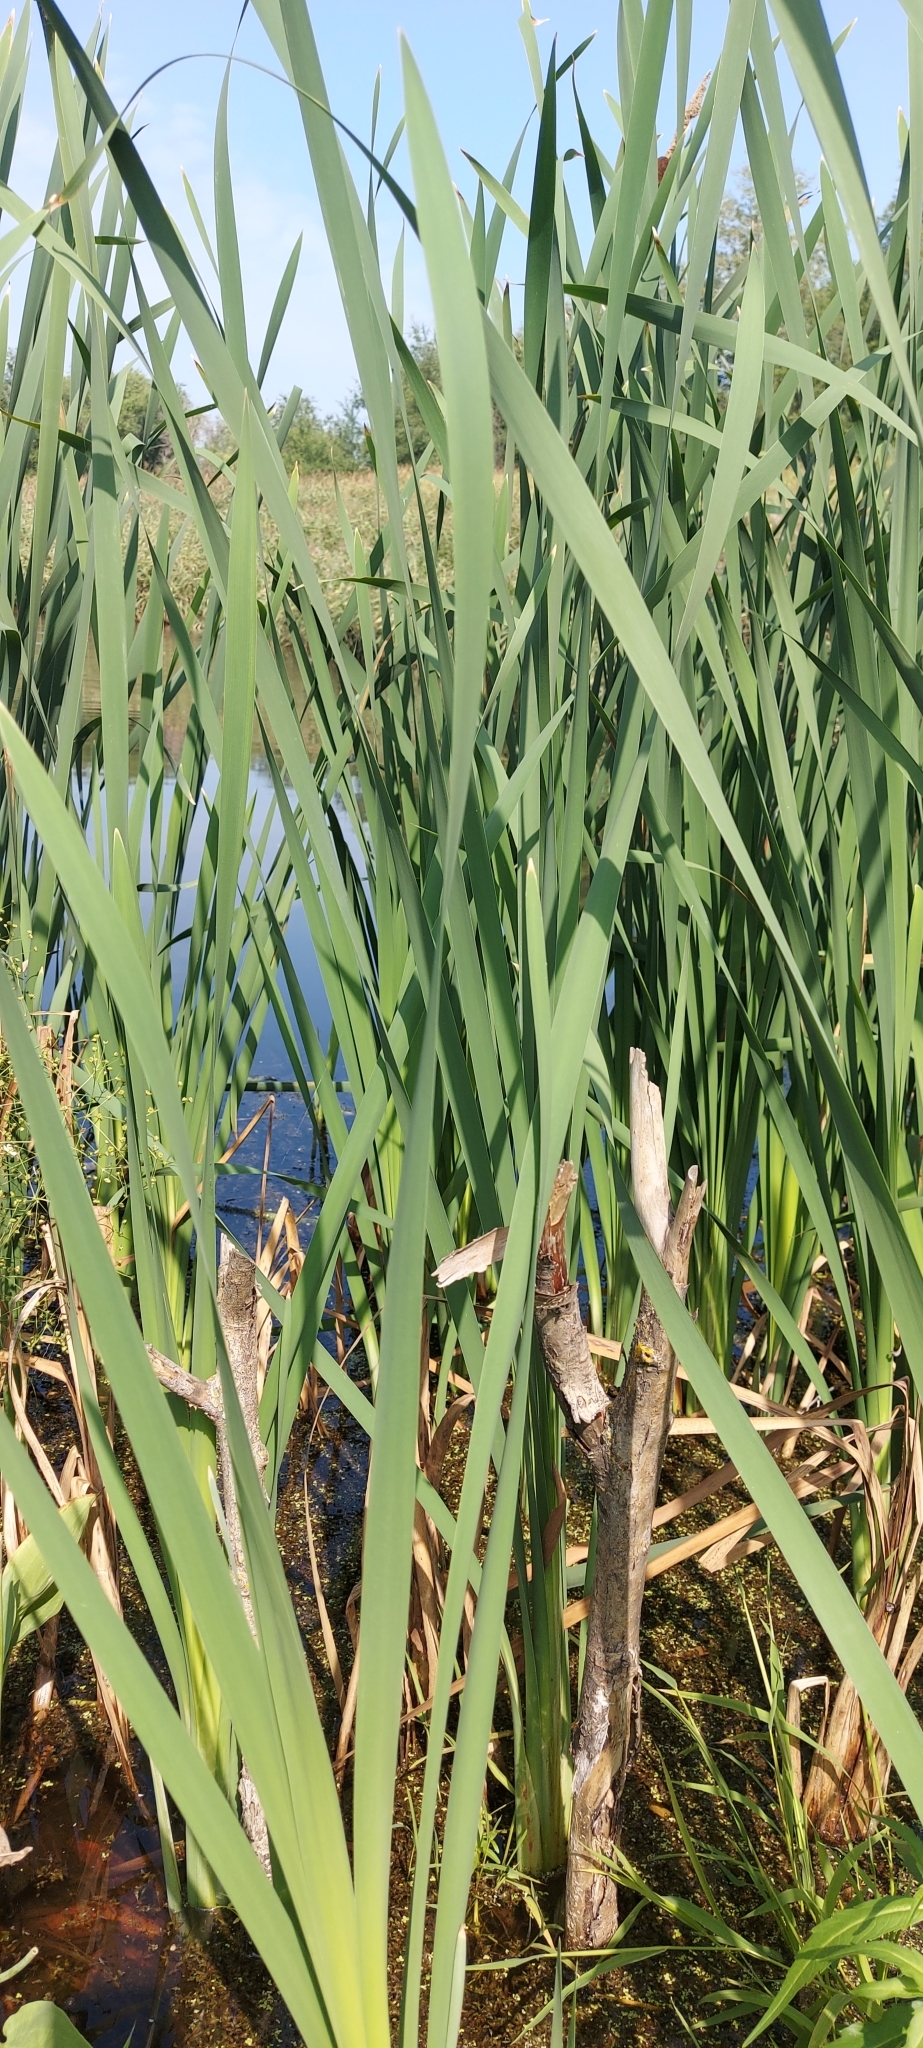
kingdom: Plantae
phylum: Tracheophyta
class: Liliopsida
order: Poales
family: Typhaceae
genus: Typha
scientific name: Typha latifolia
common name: Broadleaf cattail
